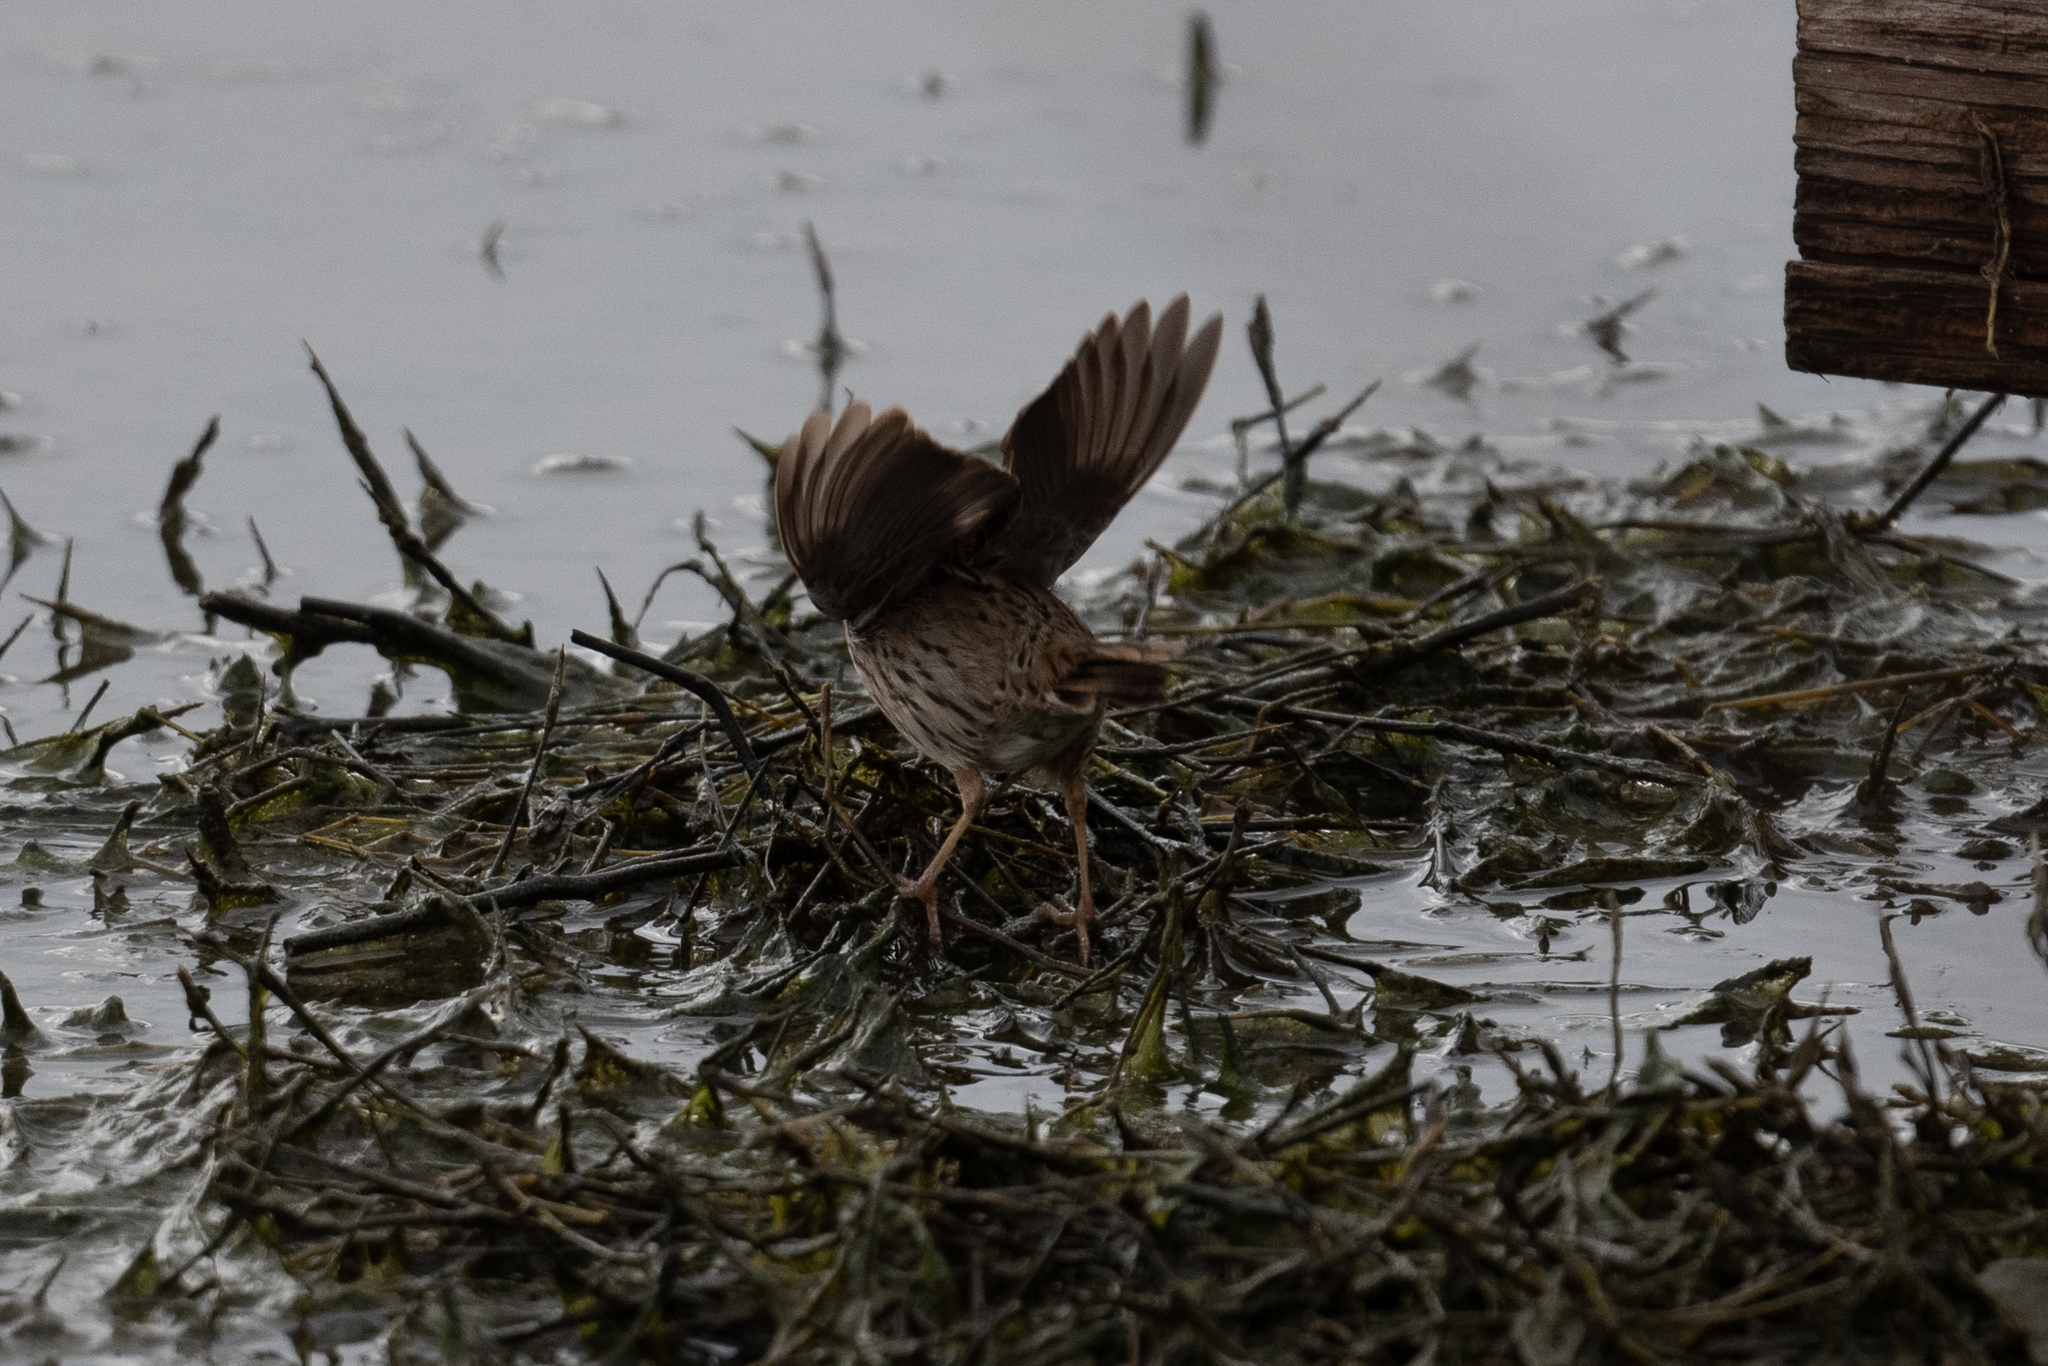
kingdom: Animalia
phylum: Chordata
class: Aves
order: Passeriformes
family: Passerellidae
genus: Melospiza
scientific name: Melospiza lincolnii
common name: Lincoln's sparrow
